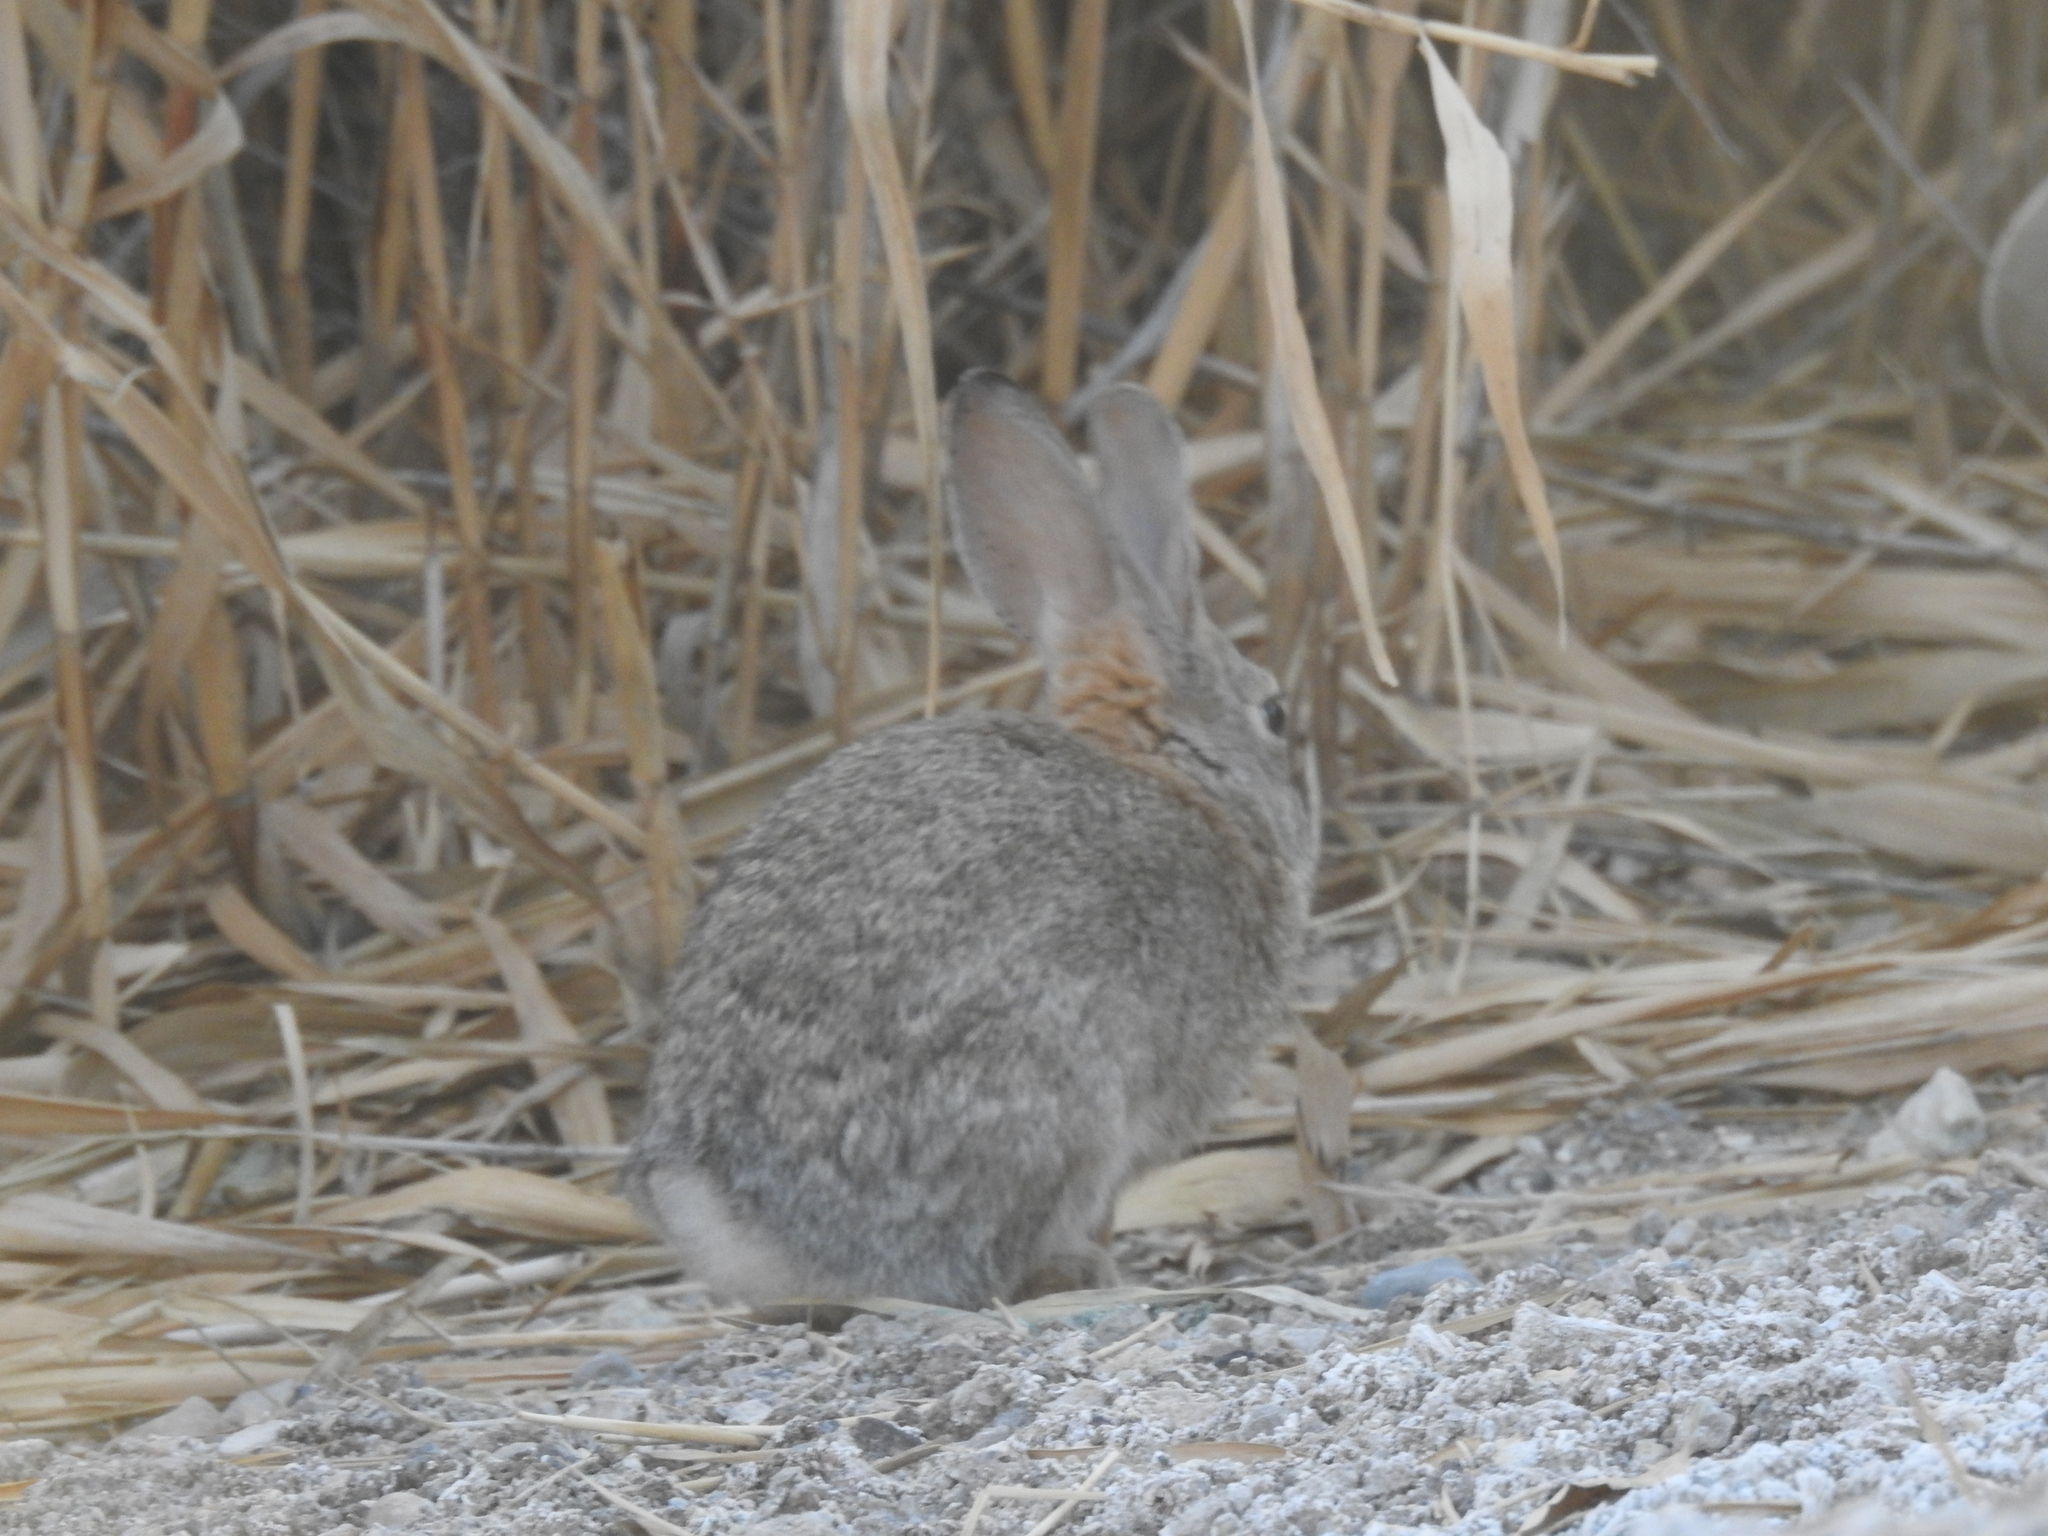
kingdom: Animalia
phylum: Chordata
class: Mammalia
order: Lagomorpha
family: Leporidae
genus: Sylvilagus
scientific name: Sylvilagus audubonii
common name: Desert cottontail
